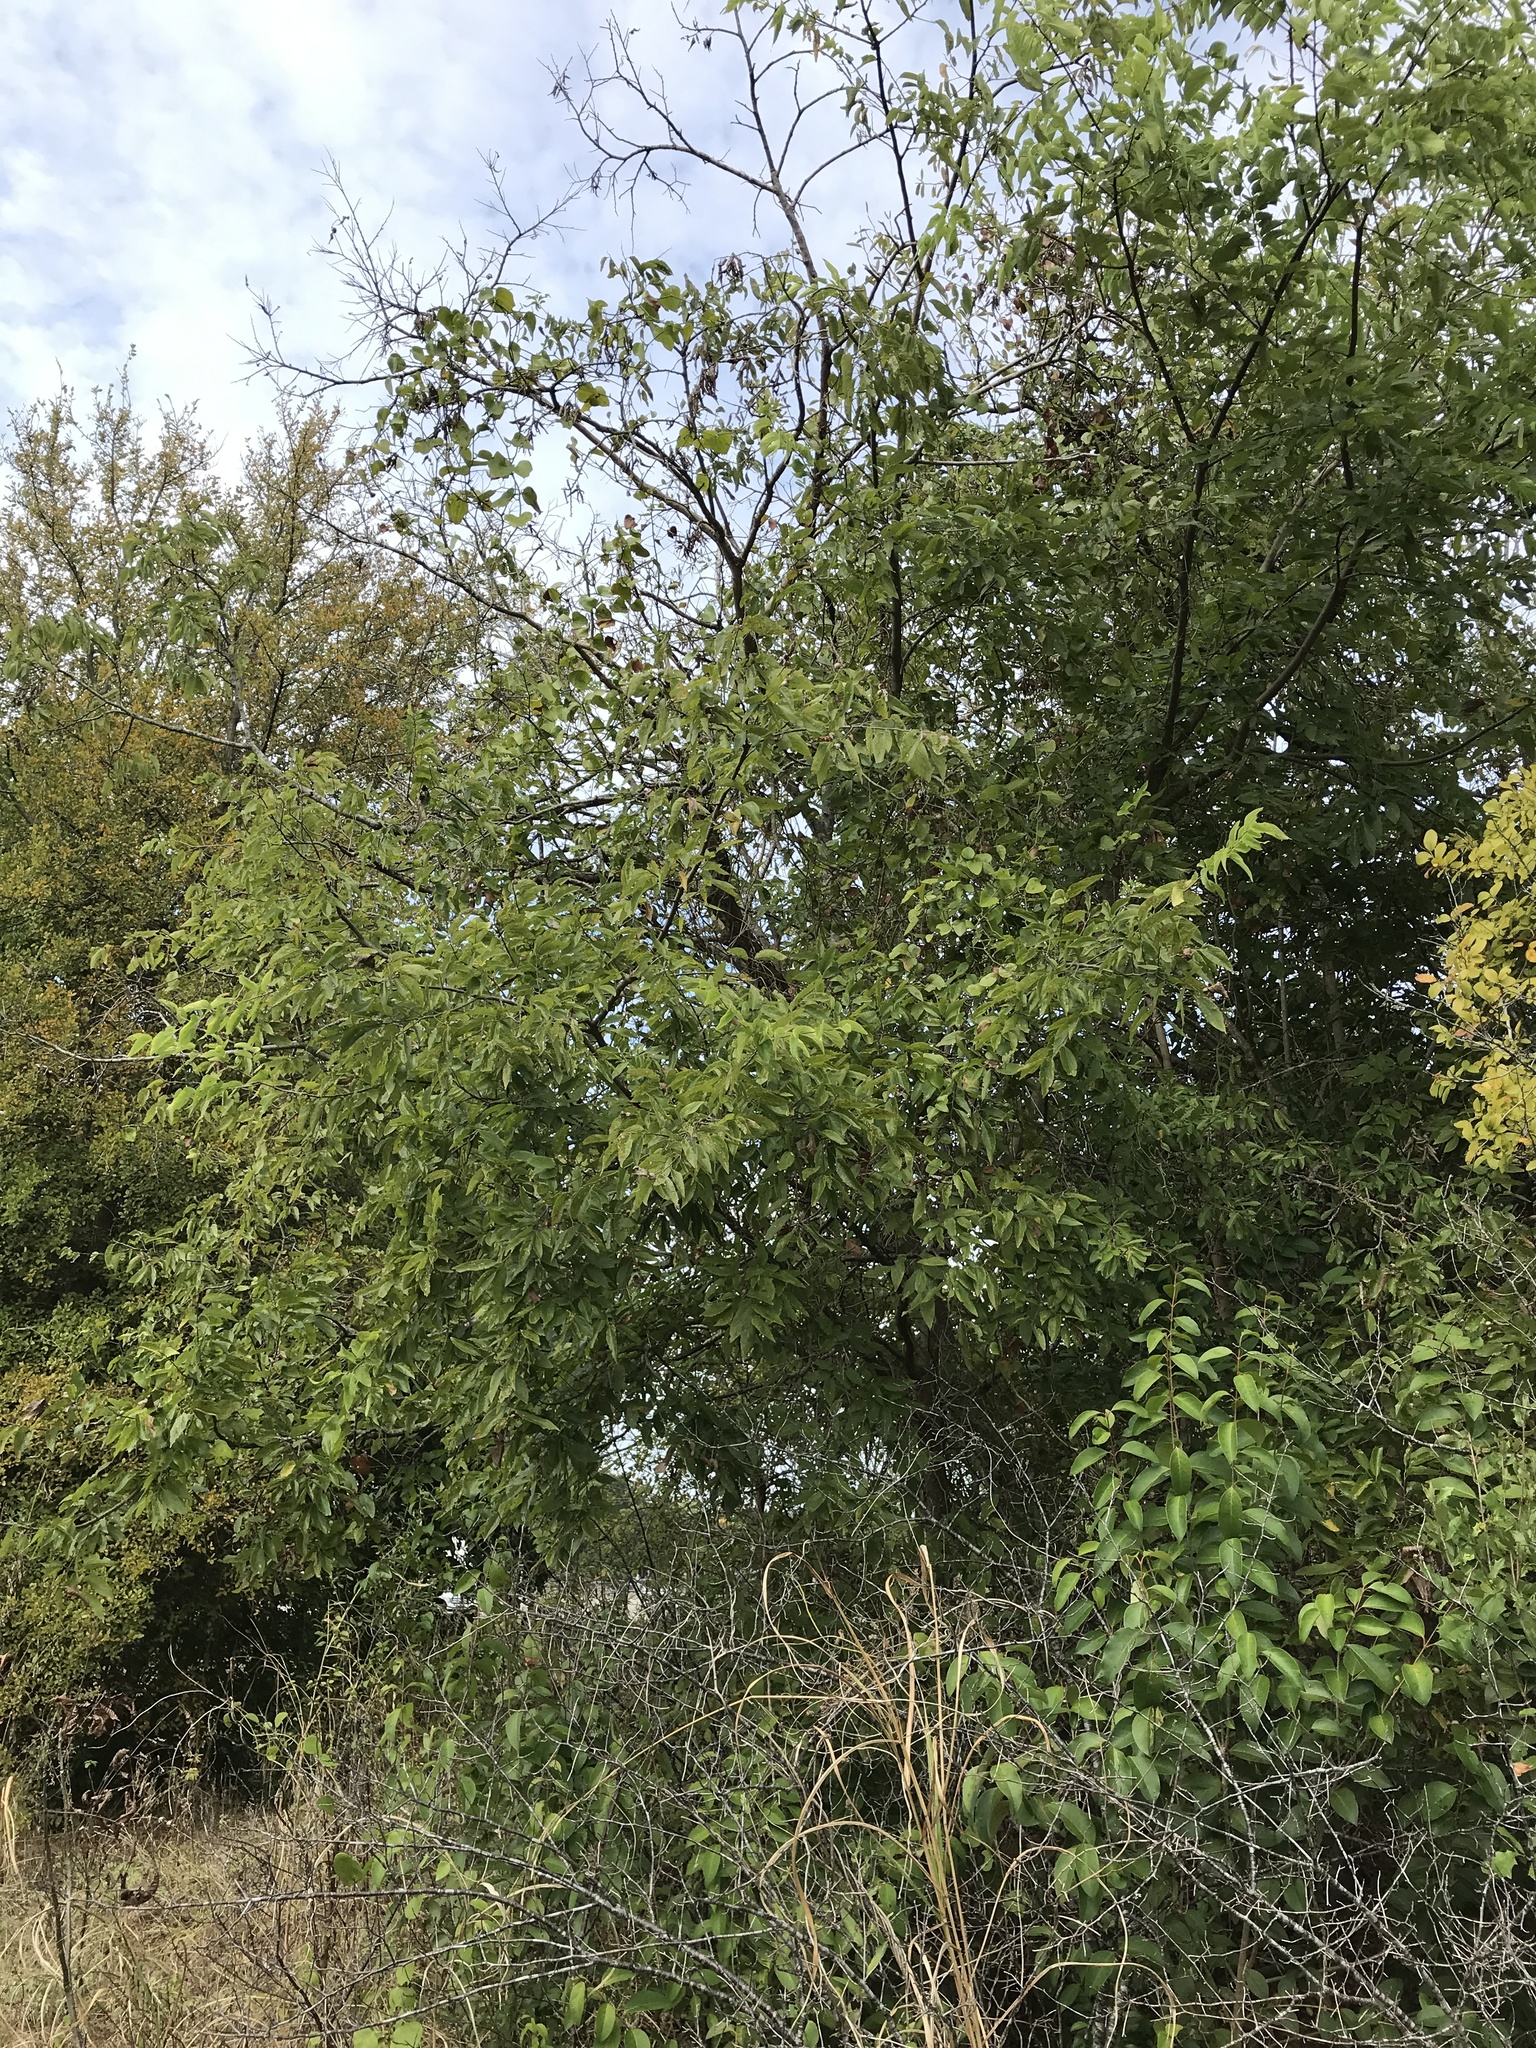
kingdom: Plantae
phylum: Tracheophyta
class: Magnoliopsida
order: Rosales
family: Cannabaceae
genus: Celtis
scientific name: Celtis laevigata
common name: Sugarberry
